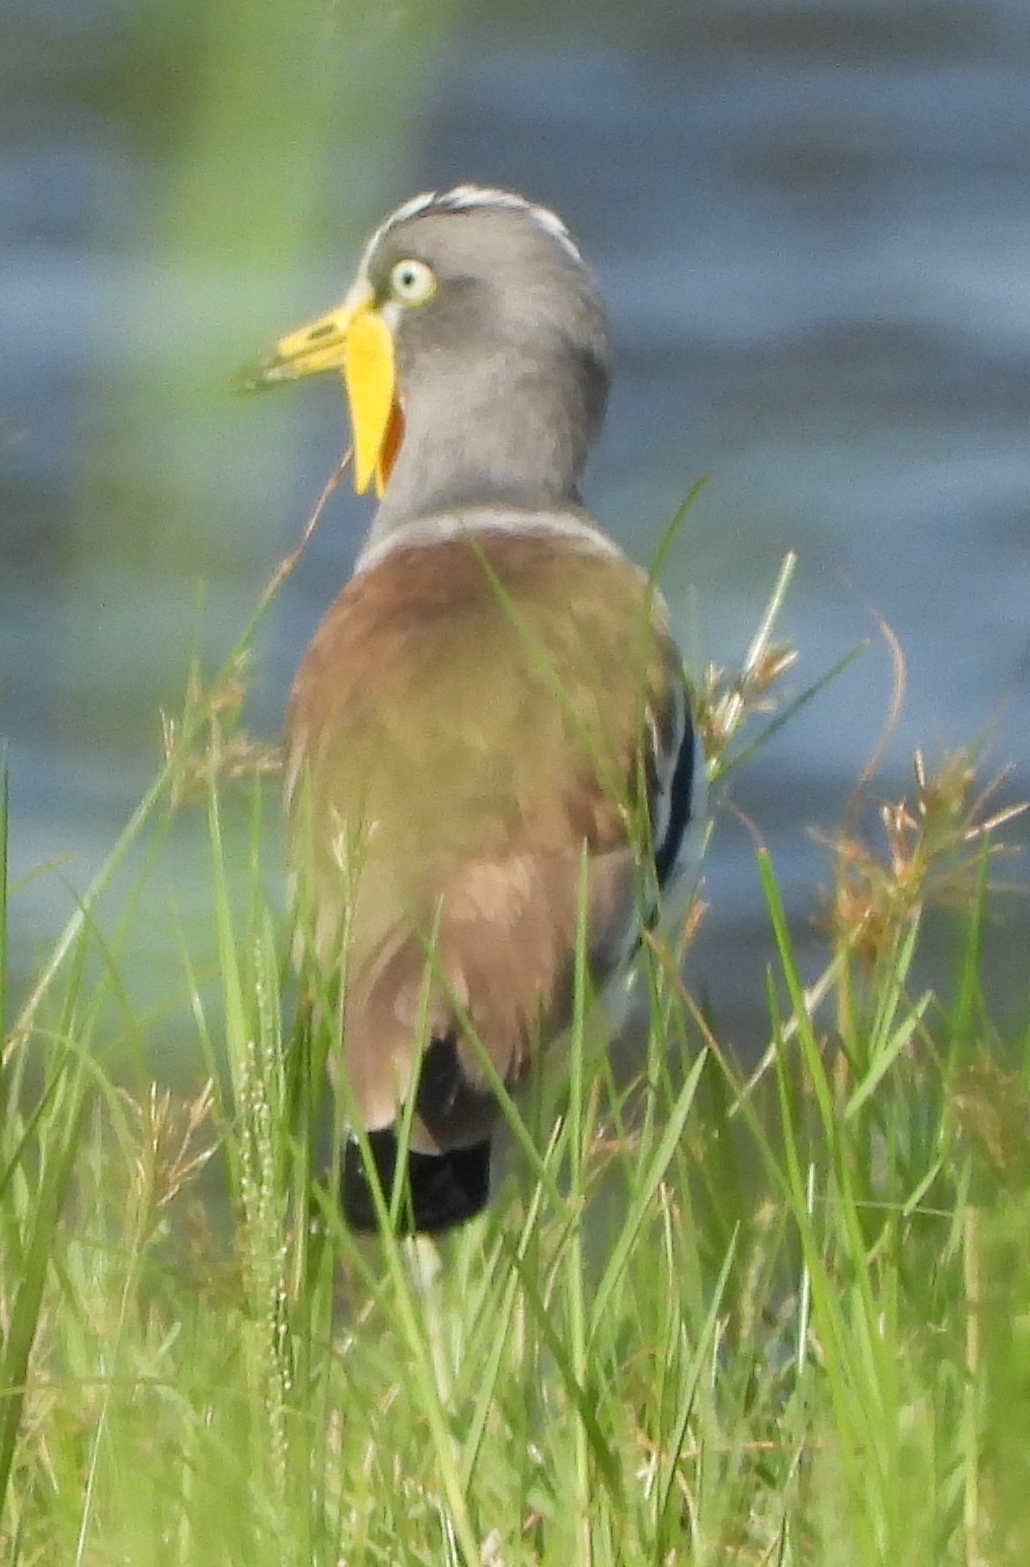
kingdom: Animalia
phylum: Chordata
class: Aves
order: Charadriiformes
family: Charadriidae
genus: Vanellus
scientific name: Vanellus albiceps
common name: White-crowned lapwing
